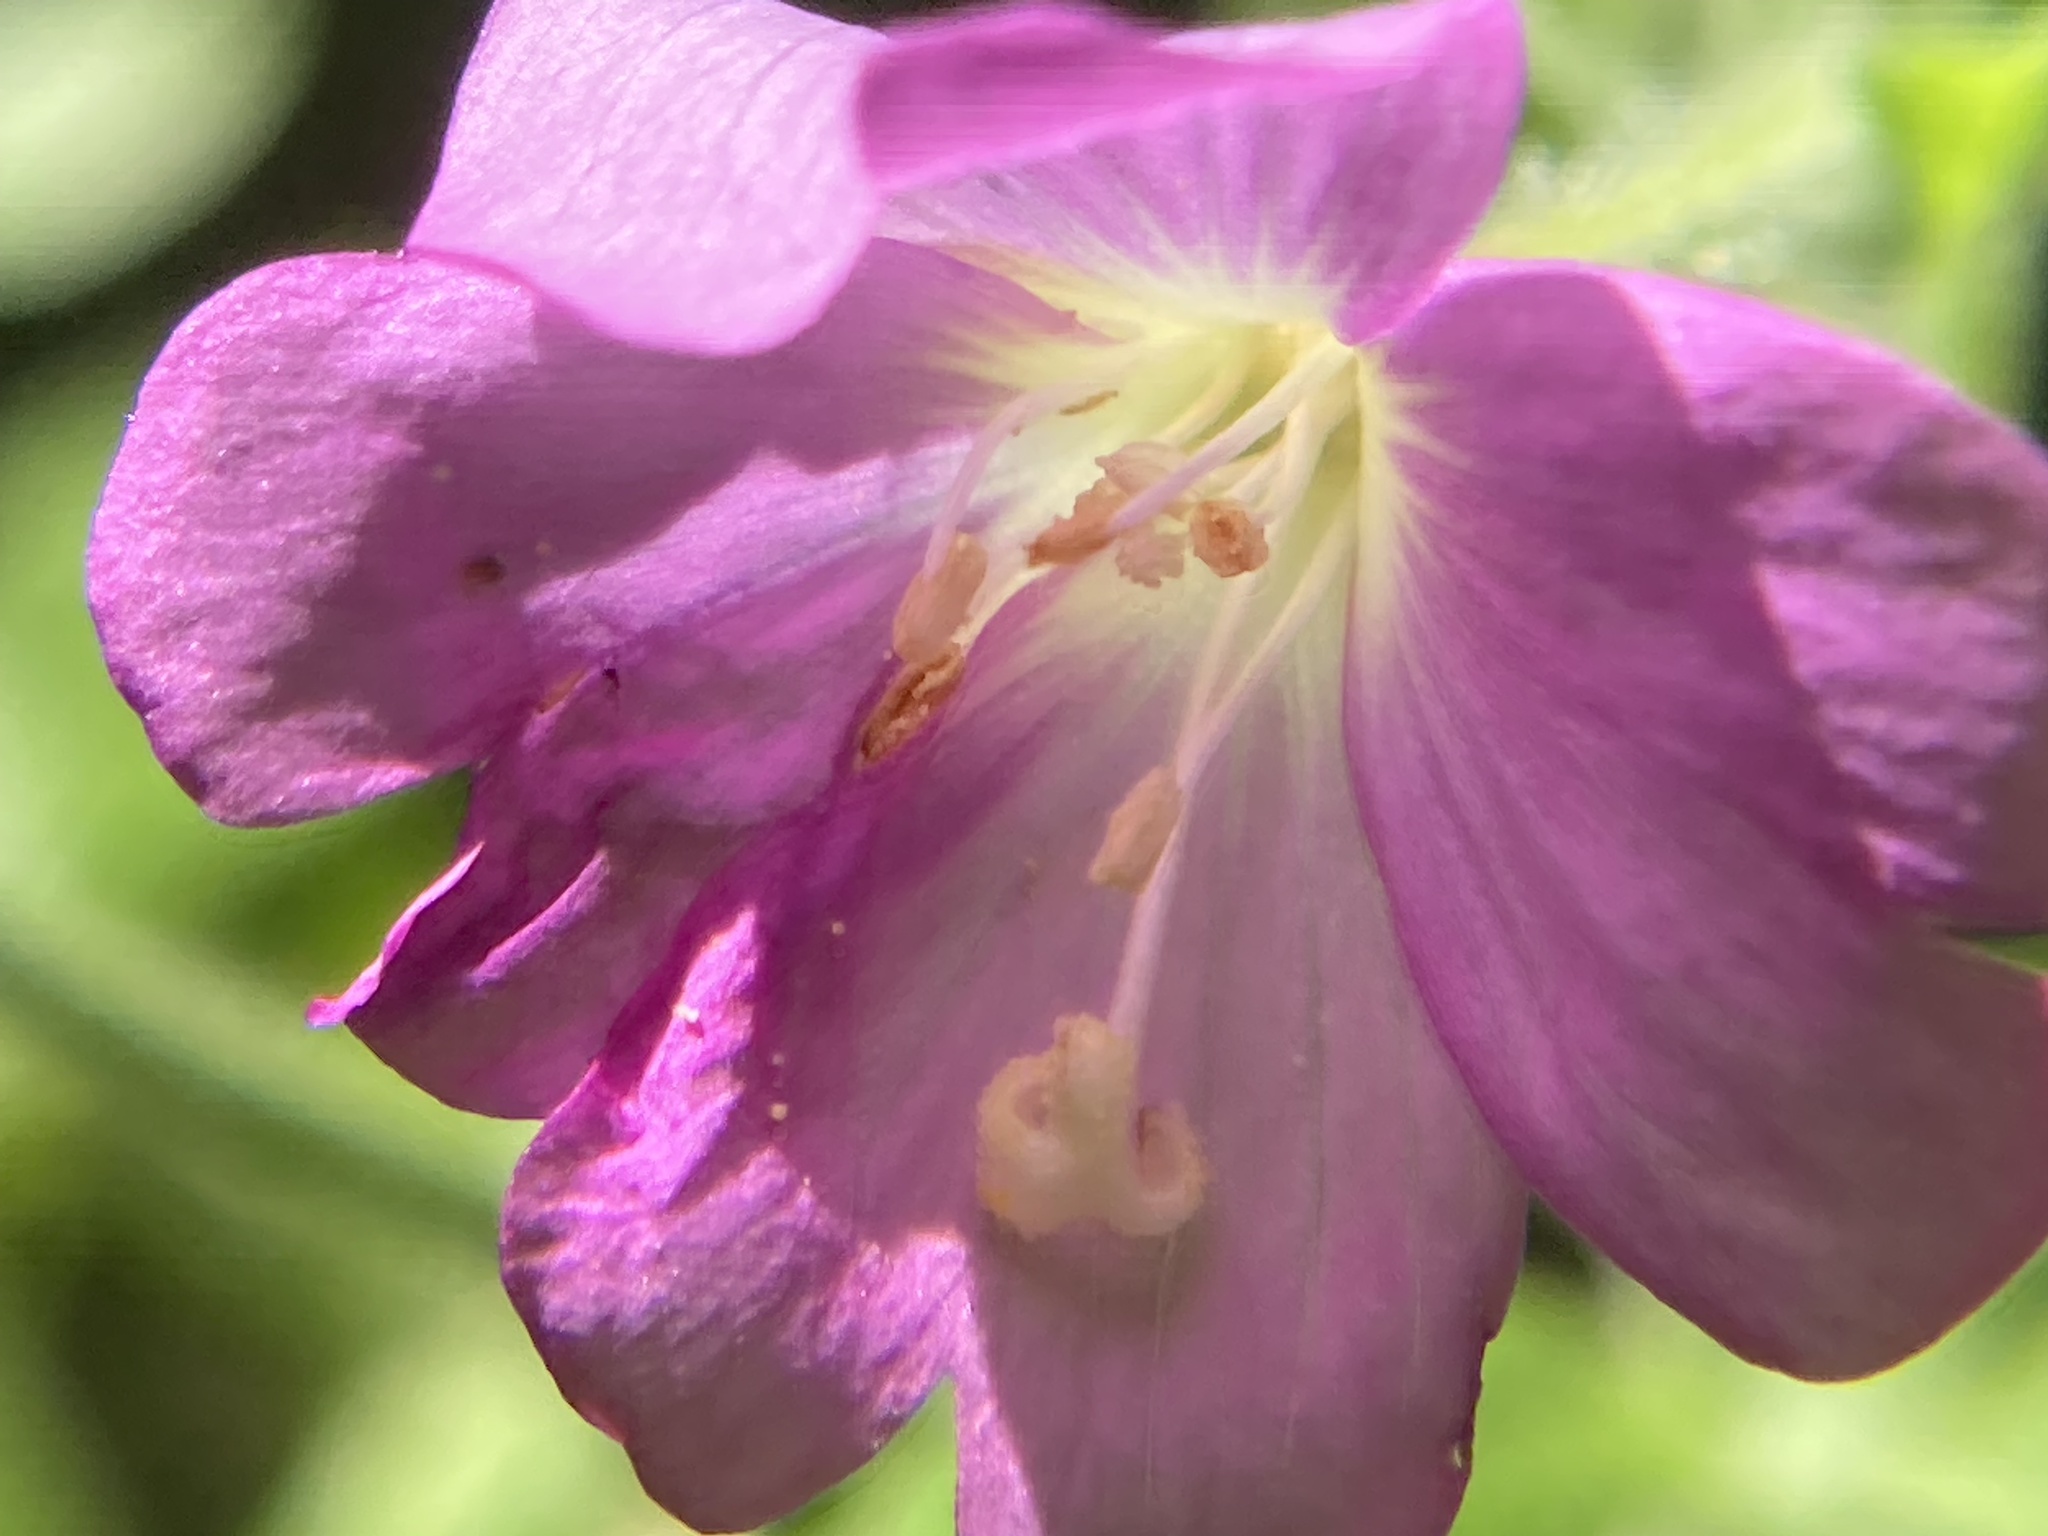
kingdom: Plantae
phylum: Tracheophyta
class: Magnoliopsida
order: Myrtales
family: Onagraceae
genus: Epilobium
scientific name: Epilobium hirsutum
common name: Great willowherb
